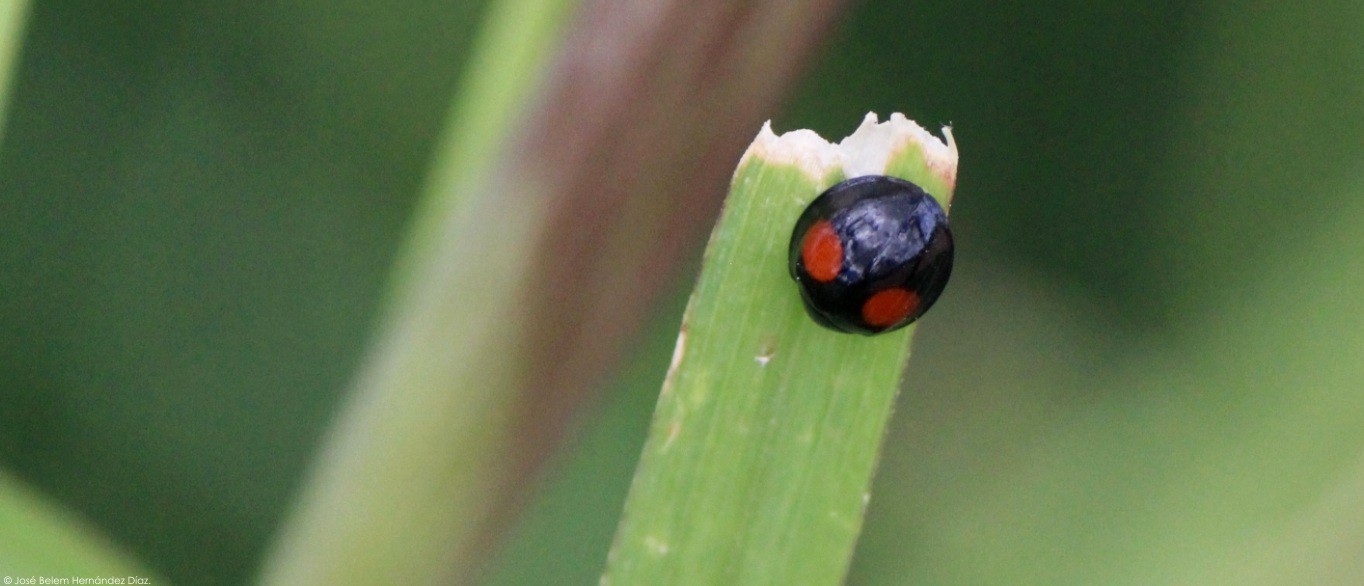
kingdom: Animalia
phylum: Arthropoda
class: Insecta
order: Coleoptera
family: Coccinellidae
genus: Chilocorus
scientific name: Chilocorus cacti
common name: Cactus lady beetle
